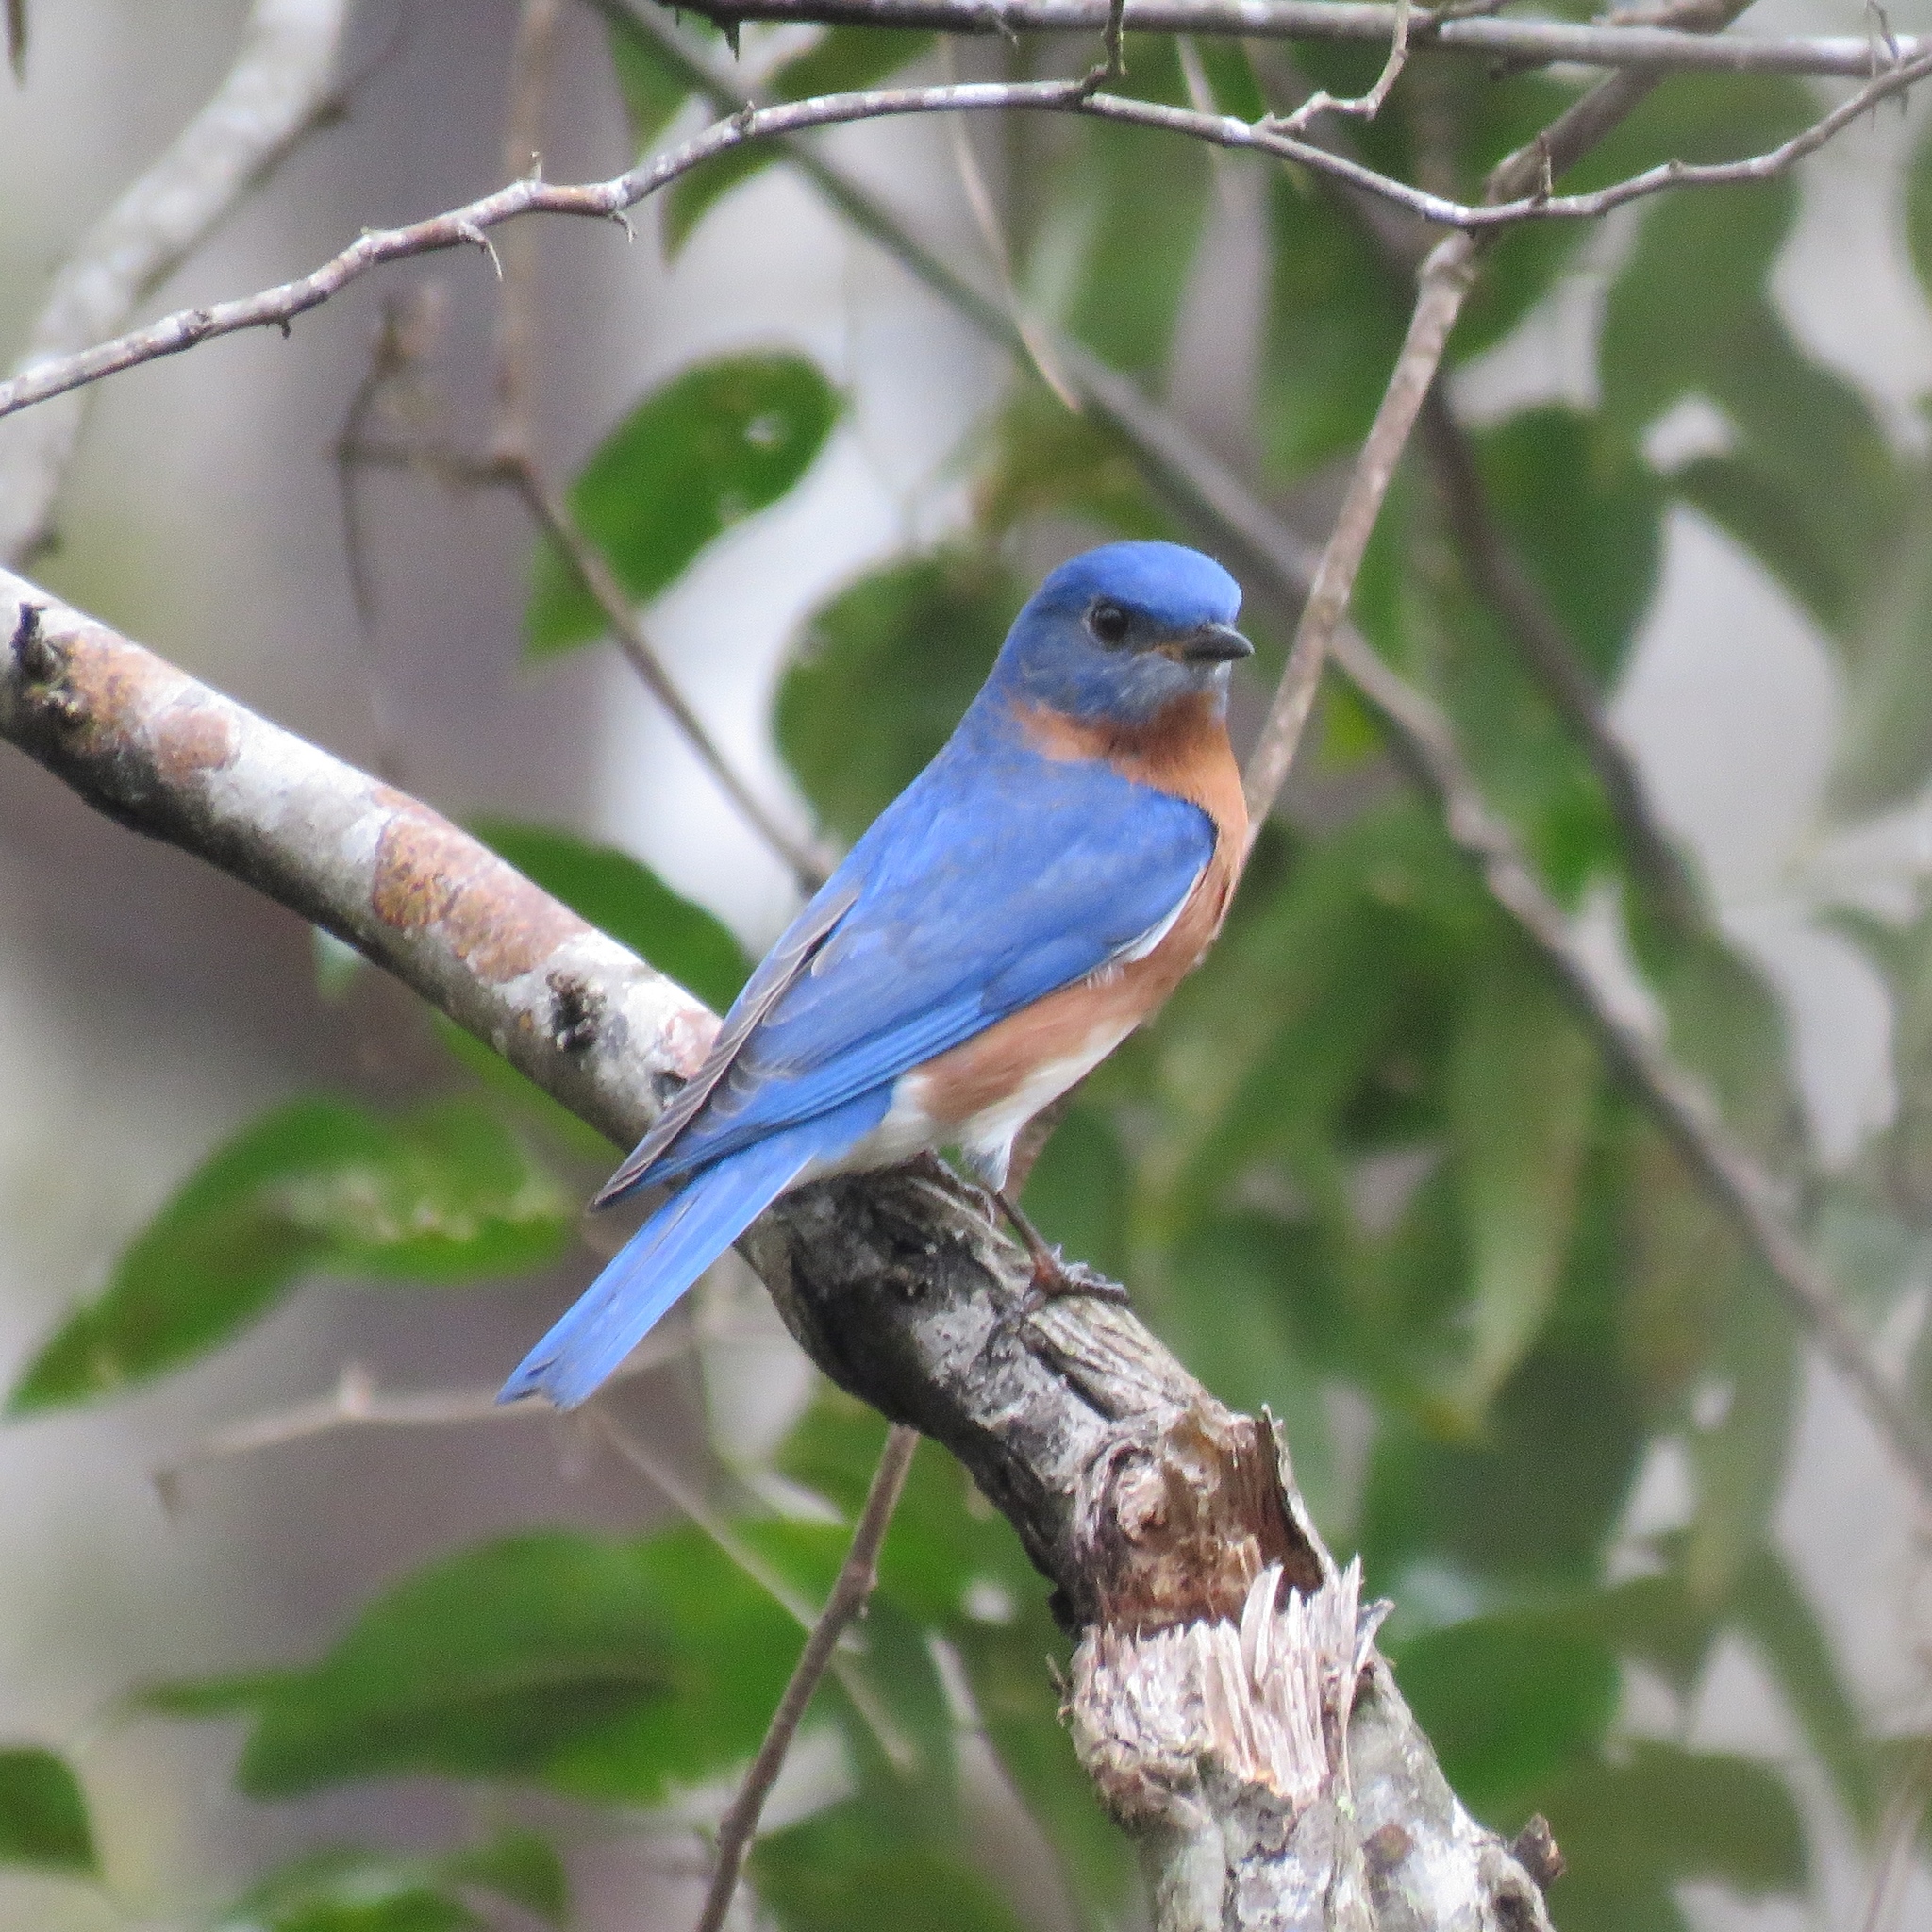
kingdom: Animalia
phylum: Chordata
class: Aves
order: Passeriformes
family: Turdidae
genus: Sialia
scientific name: Sialia sialis
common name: Eastern bluebird
